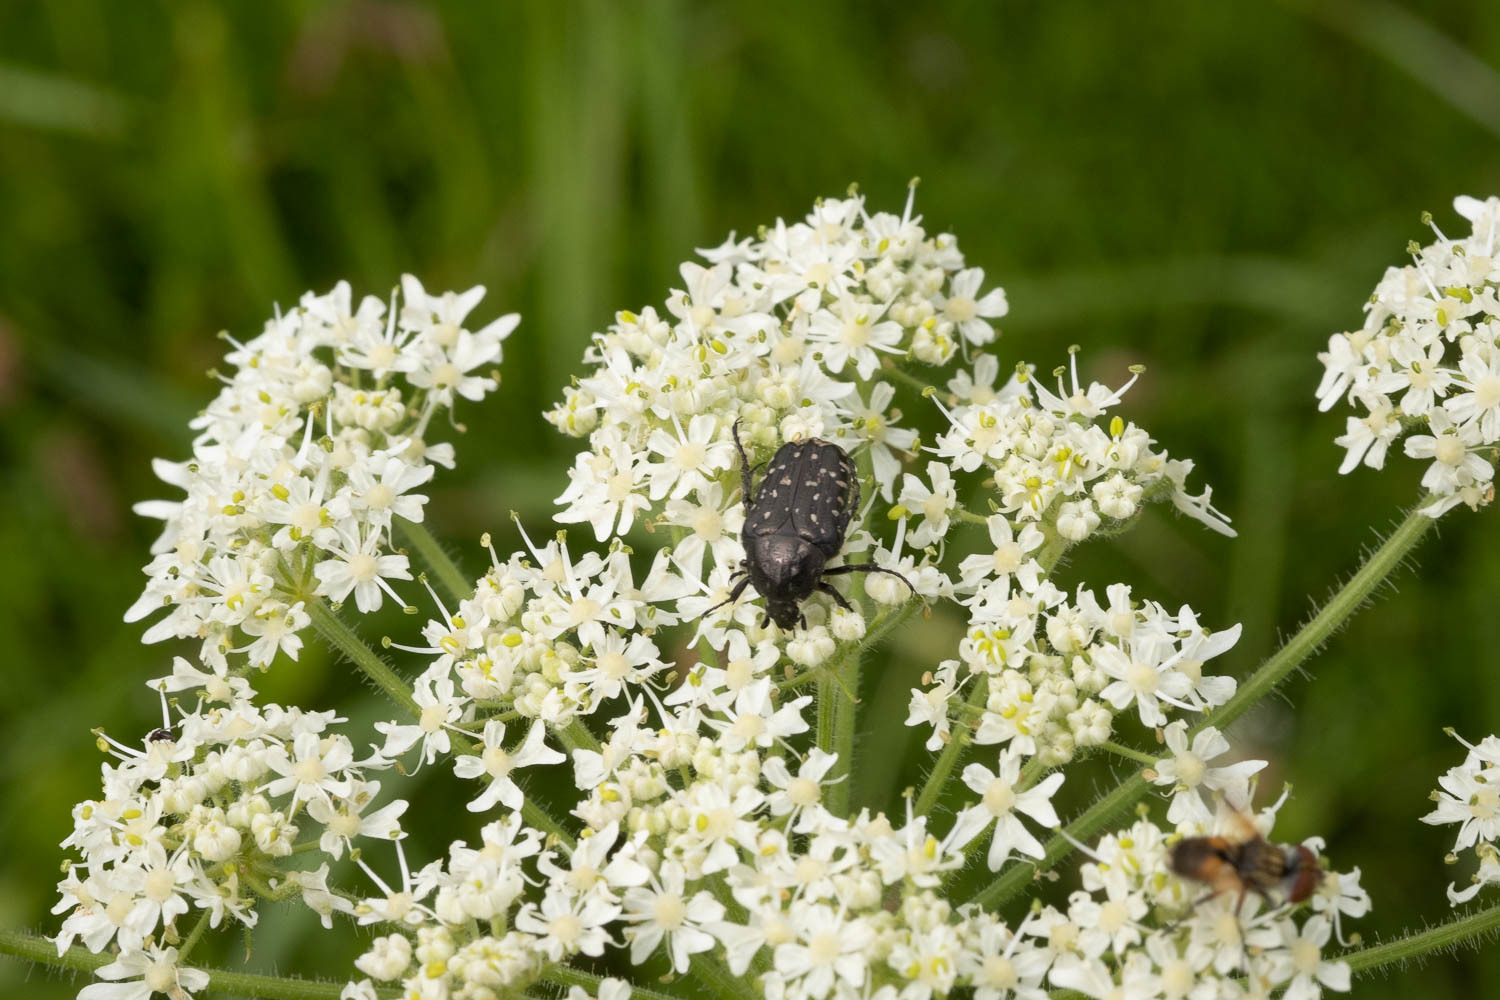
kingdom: Animalia
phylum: Arthropoda
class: Insecta
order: Coleoptera
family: Scarabaeidae
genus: Oxythyrea
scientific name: Oxythyrea funesta
